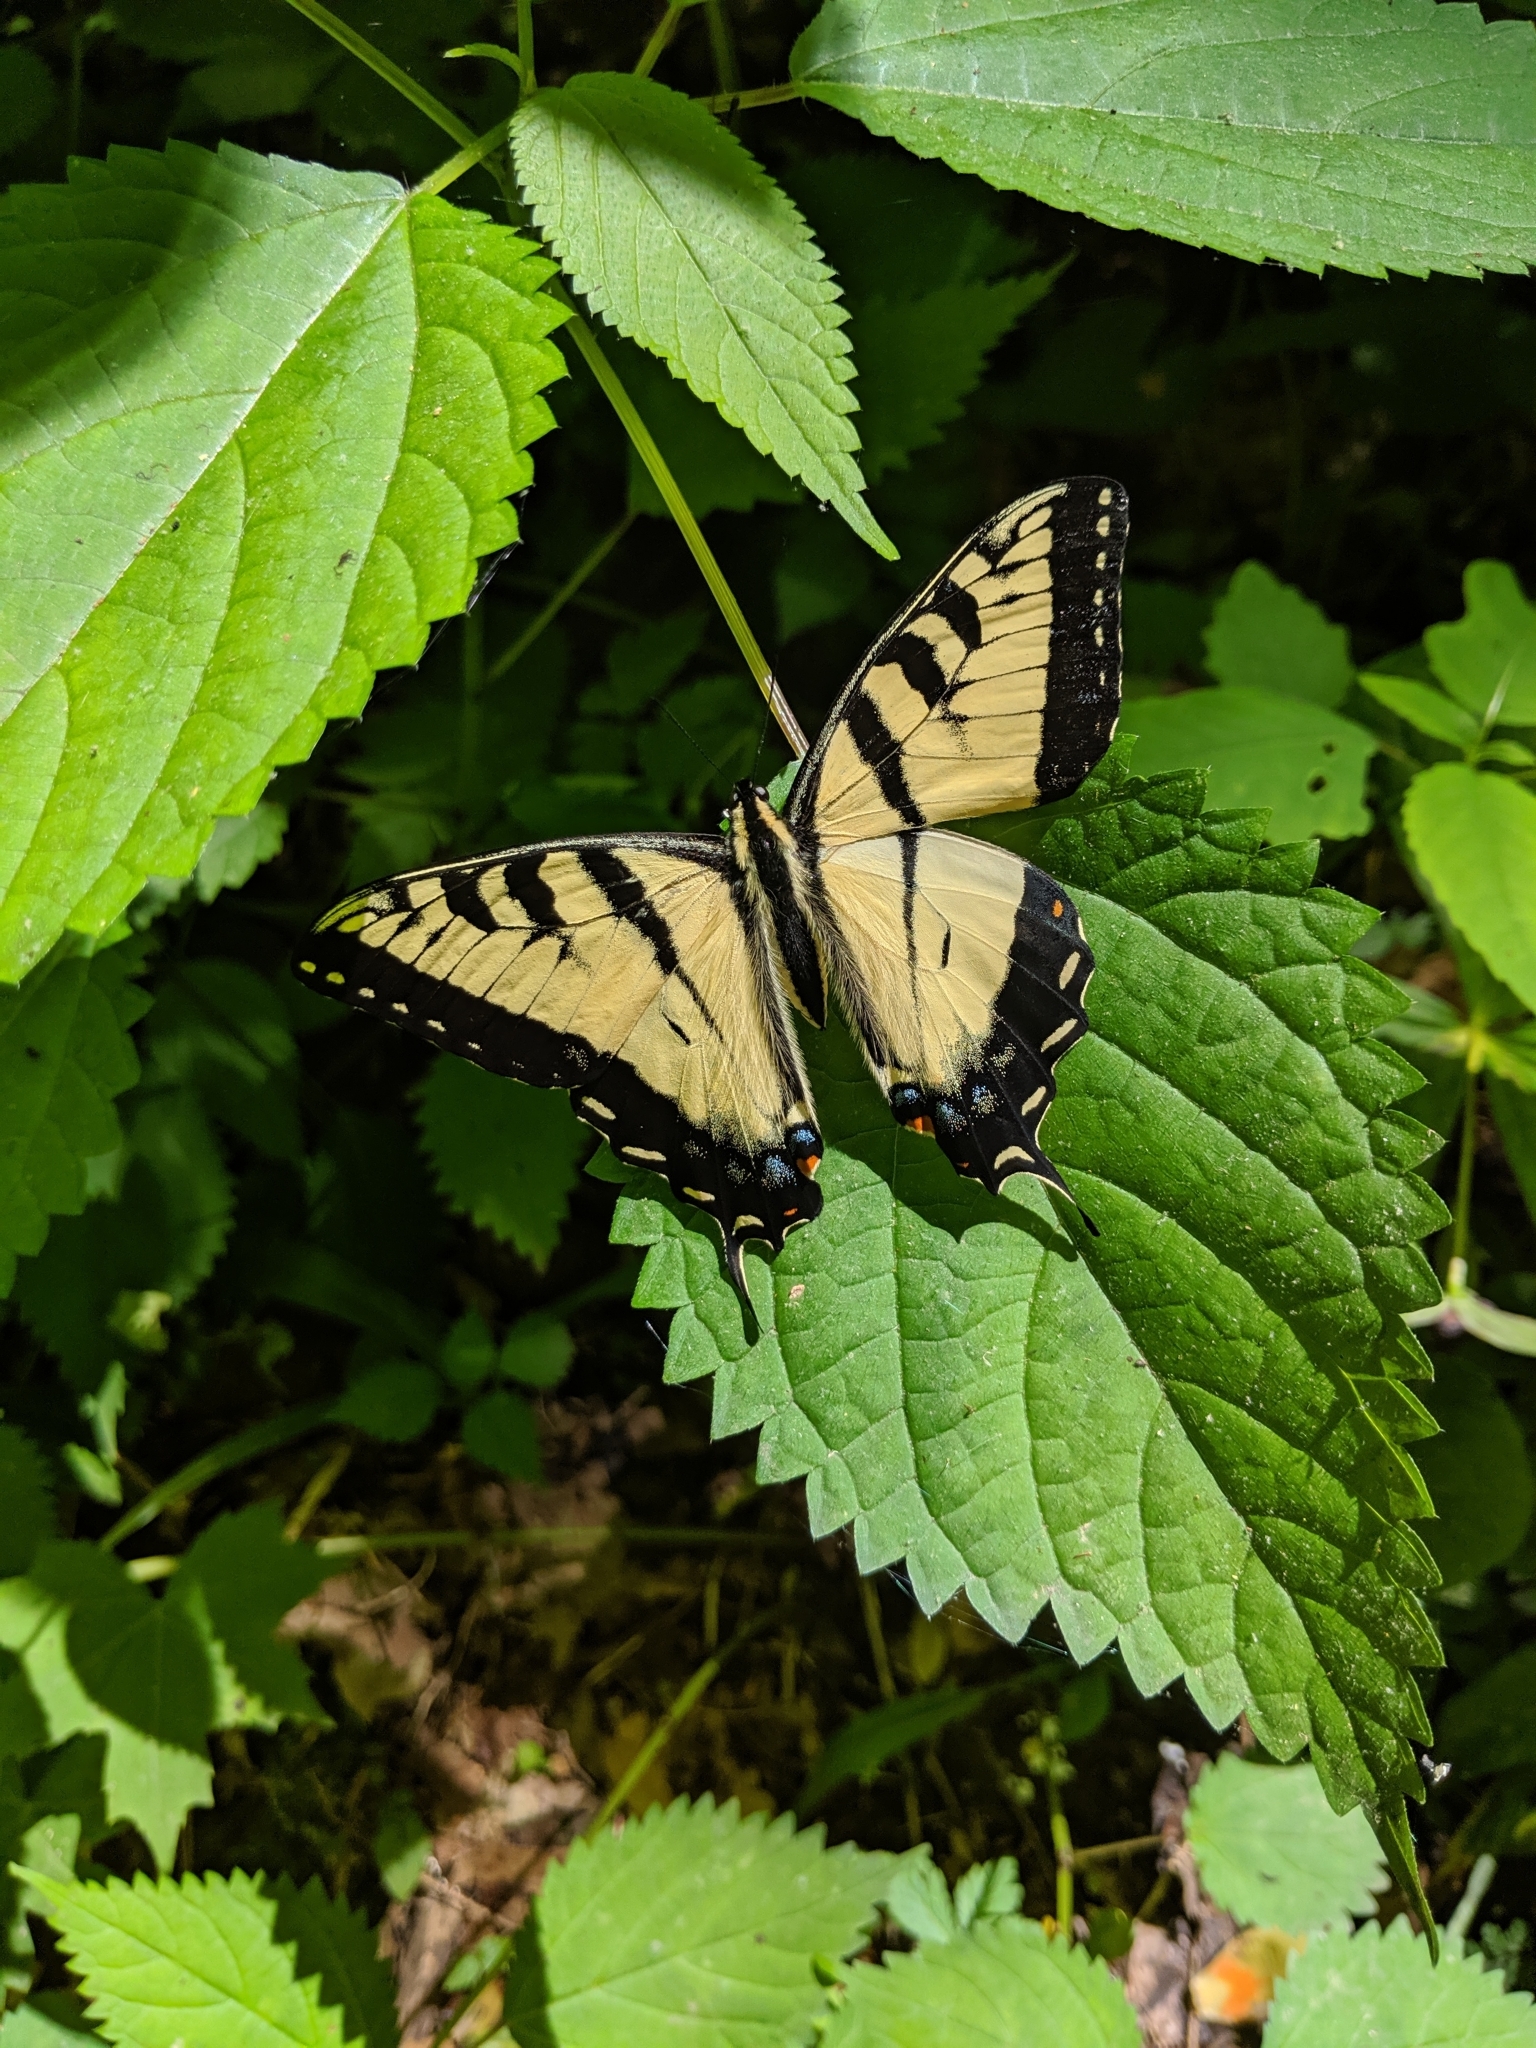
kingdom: Animalia
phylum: Arthropoda
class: Insecta
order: Lepidoptera
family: Papilionidae
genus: Papilio
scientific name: Papilio glaucus
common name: Tiger swallowtail
